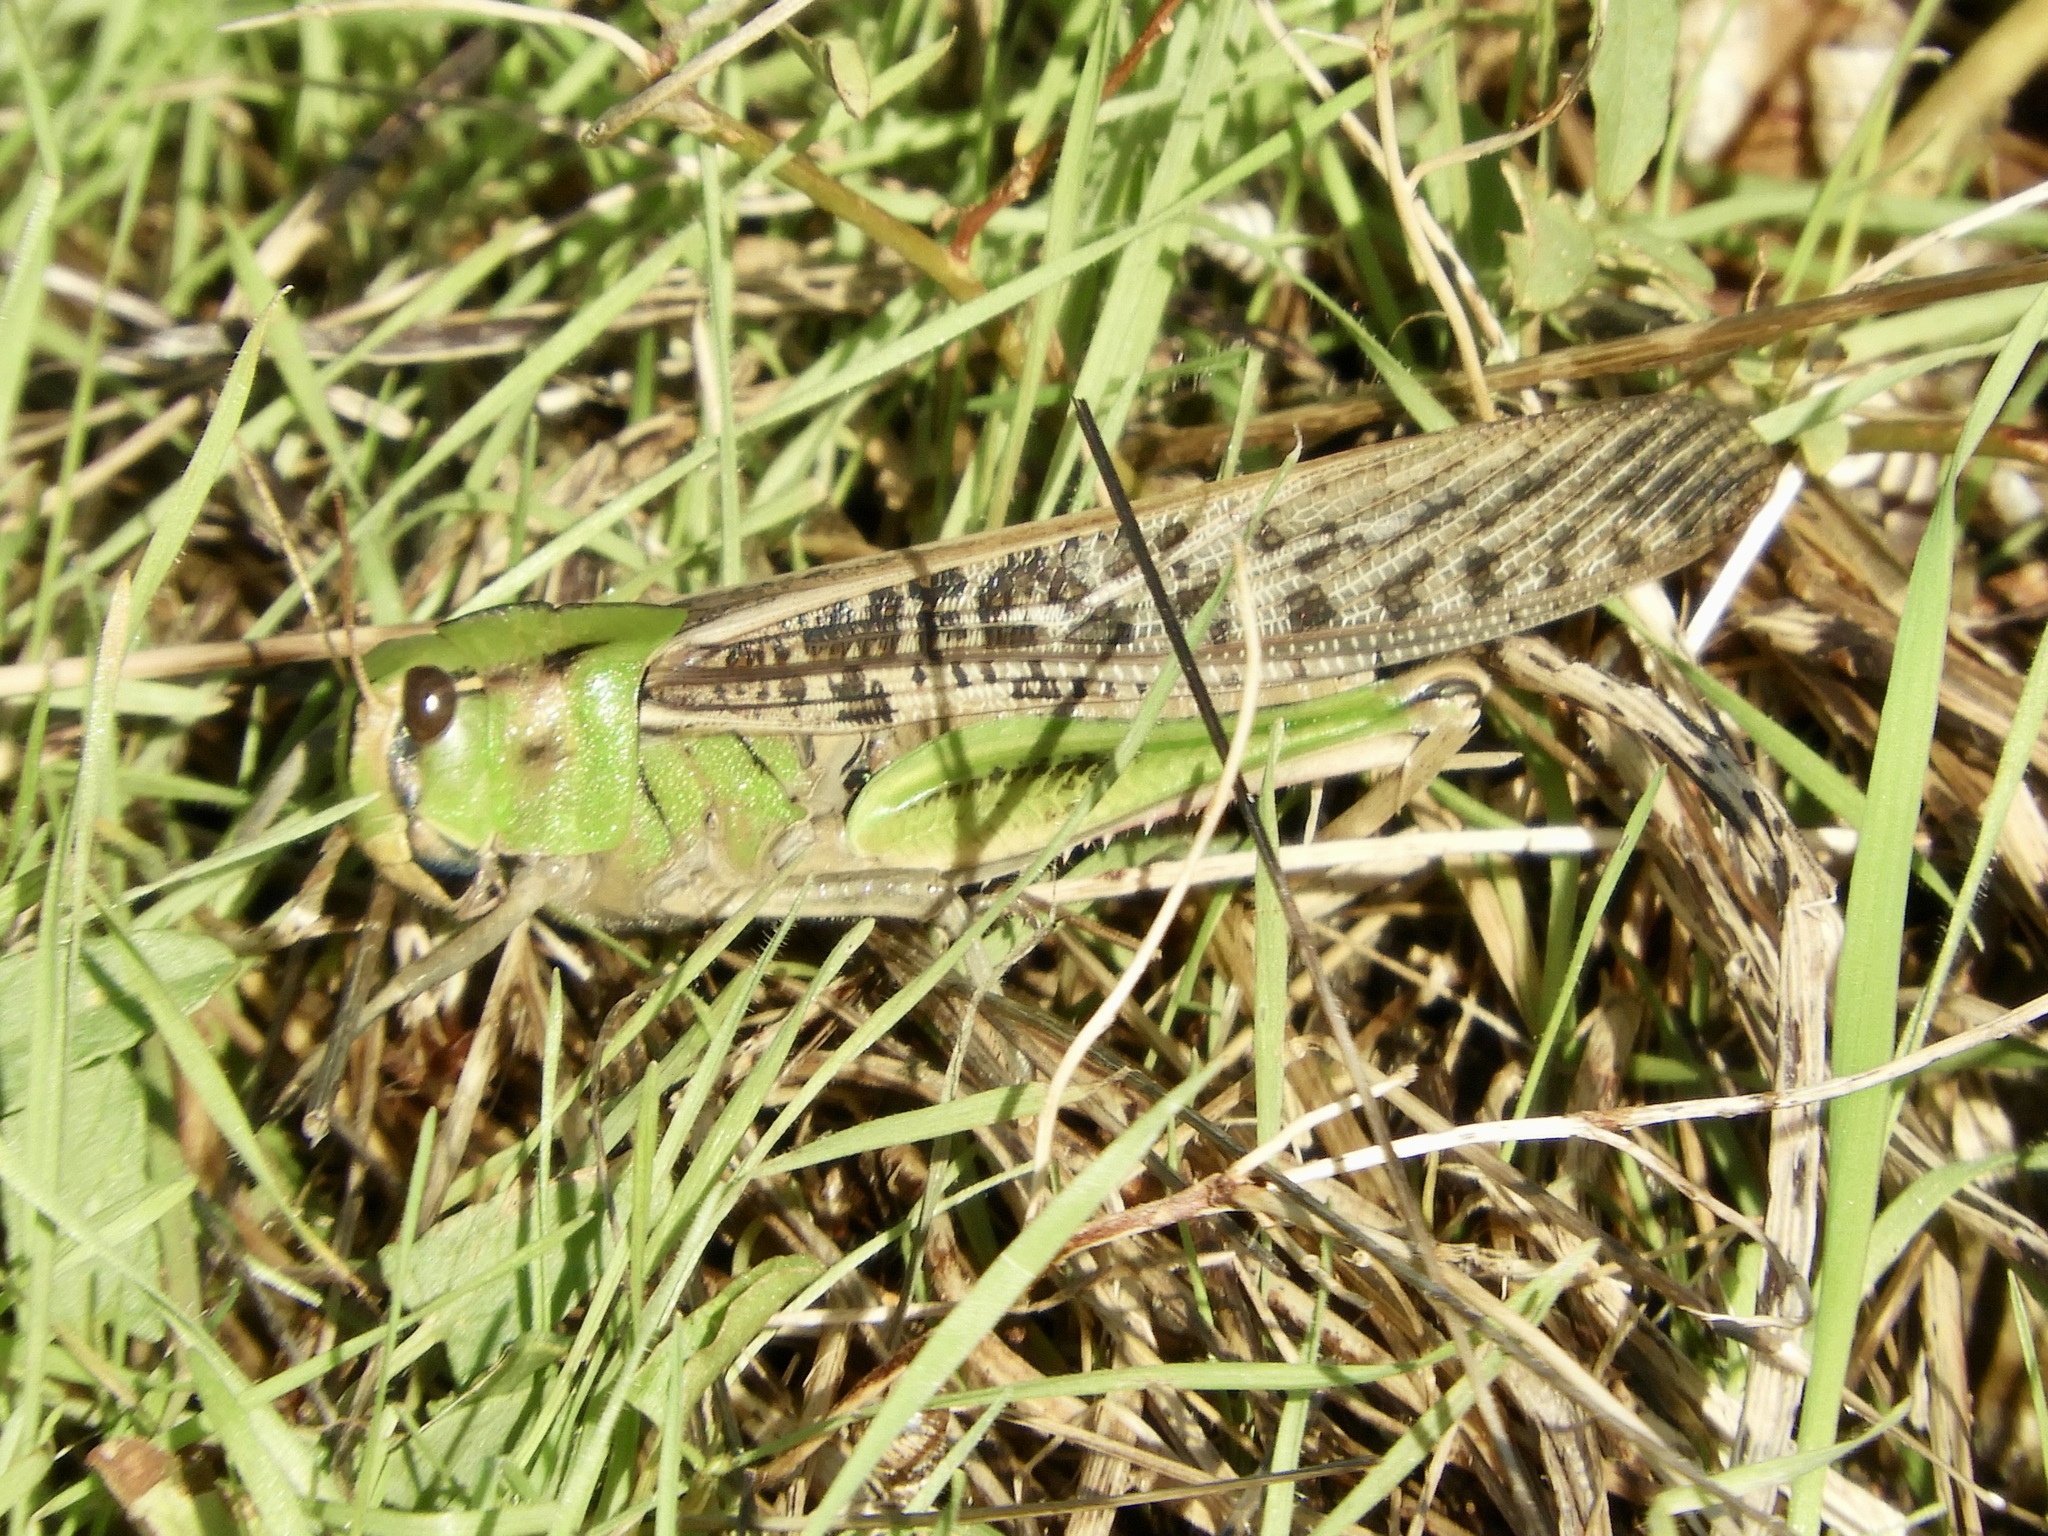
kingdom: Animalia
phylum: Arthropoda
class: Insecta
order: Orthoptera
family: Acrididae
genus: Locusta
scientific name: Locusta migratoria
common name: Migratory locust
